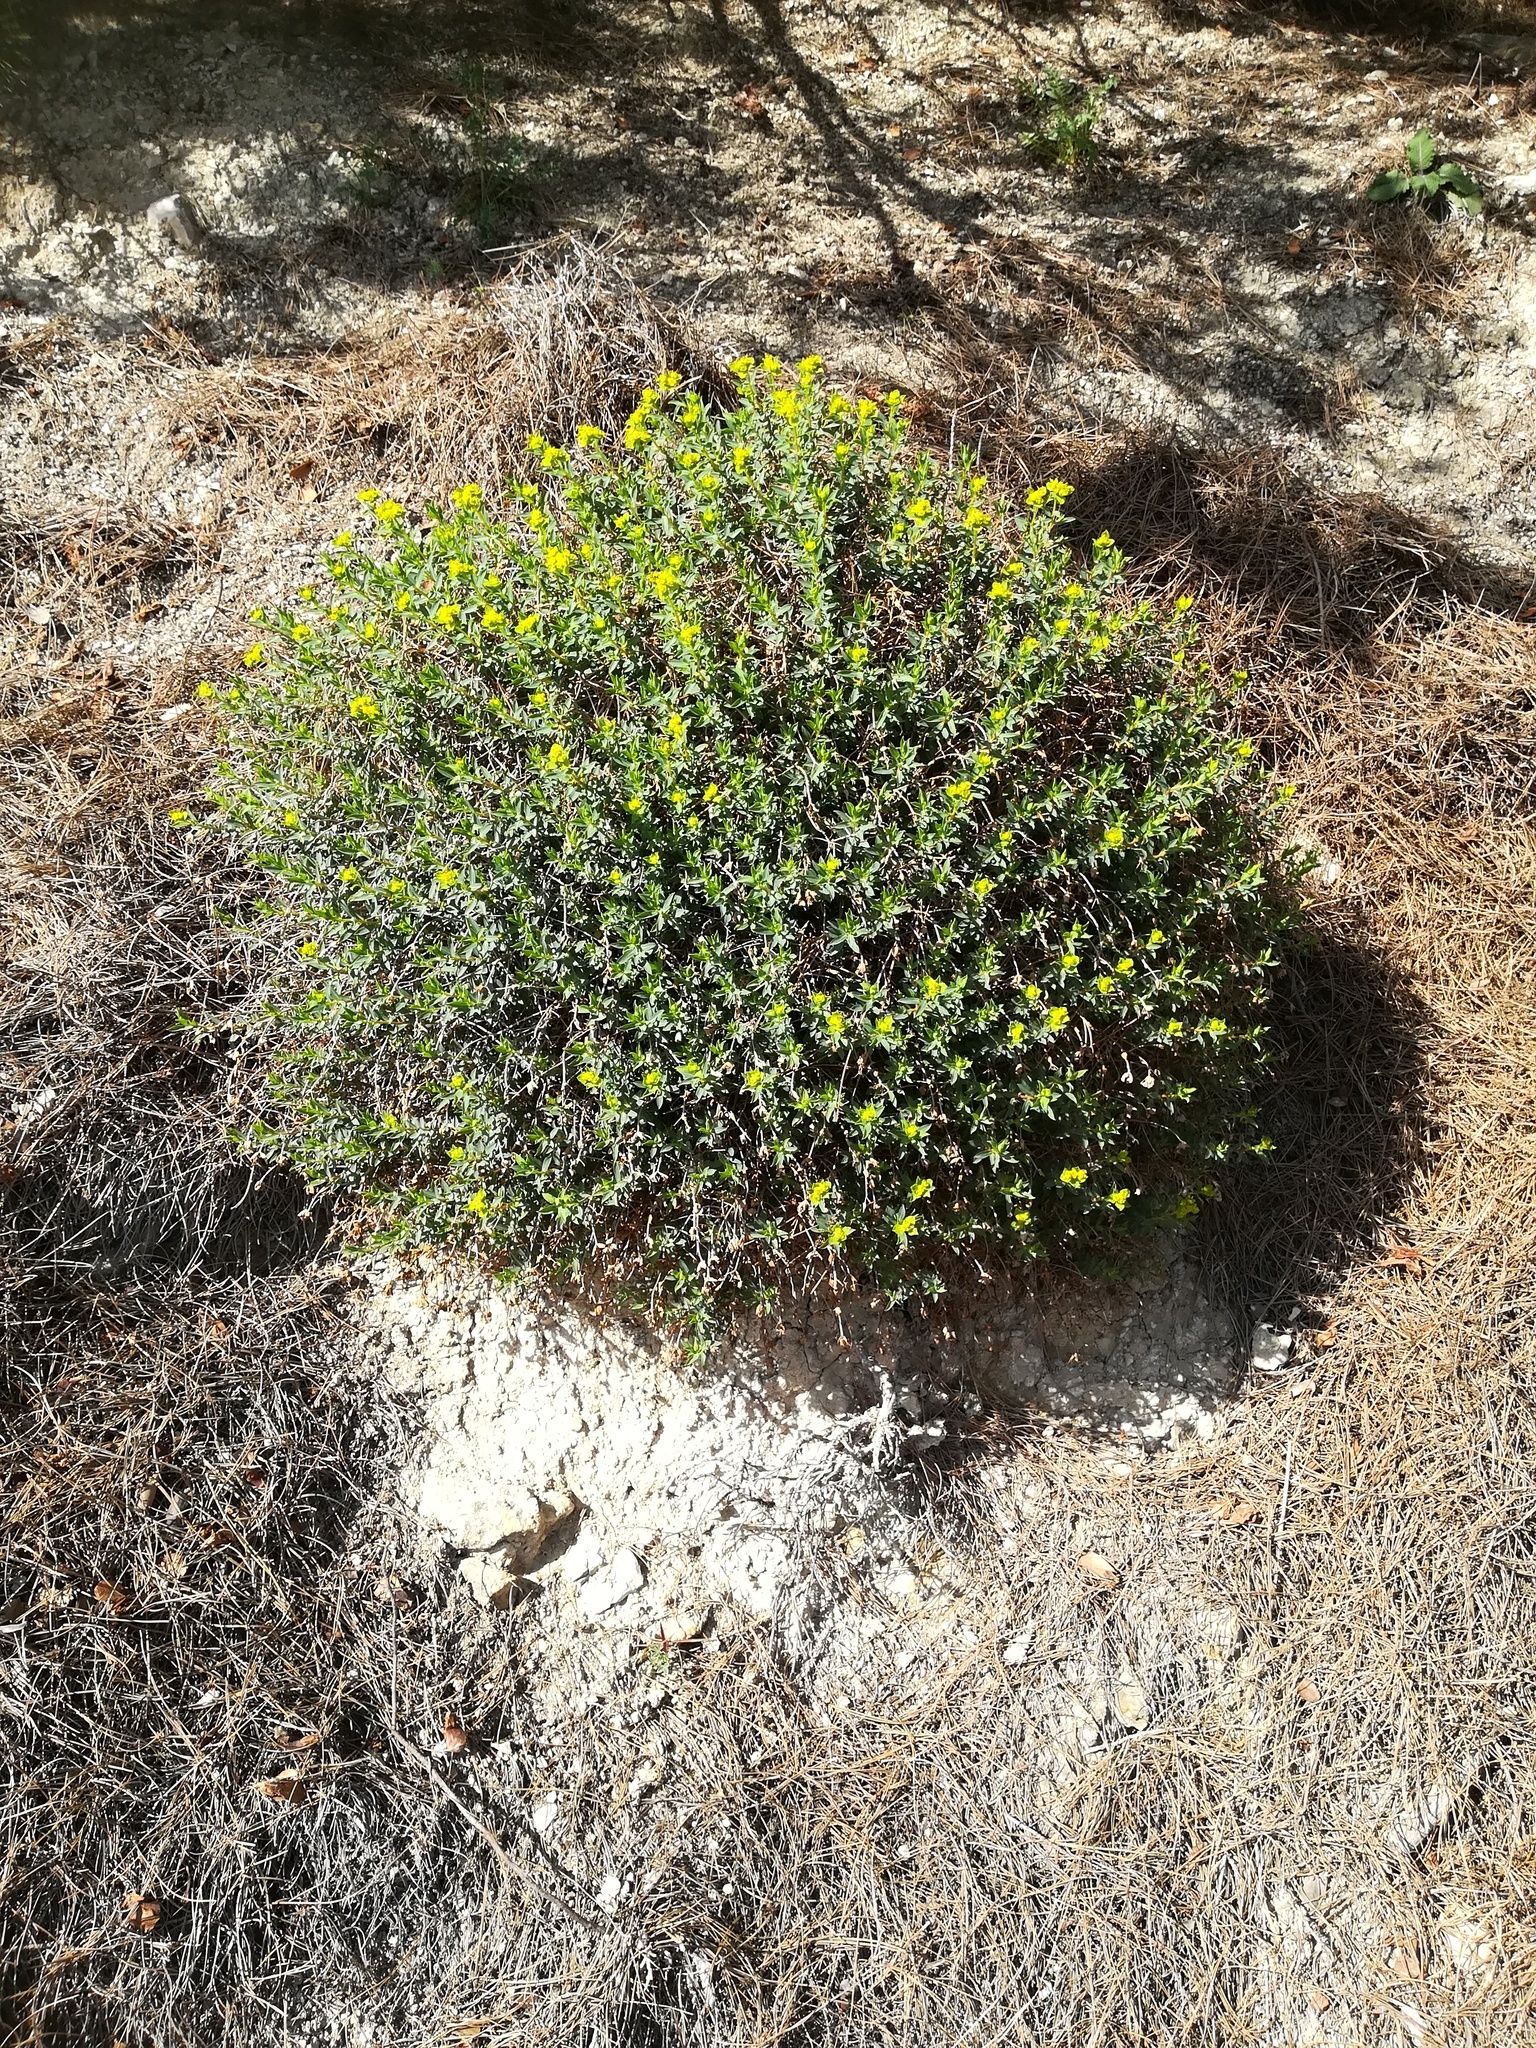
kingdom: Plantae
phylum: Tracheophyta
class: Magnoliopsida
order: Malpighiales
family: Euphorbiaceae
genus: Euphorbia
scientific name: Euphorbia spinosa
